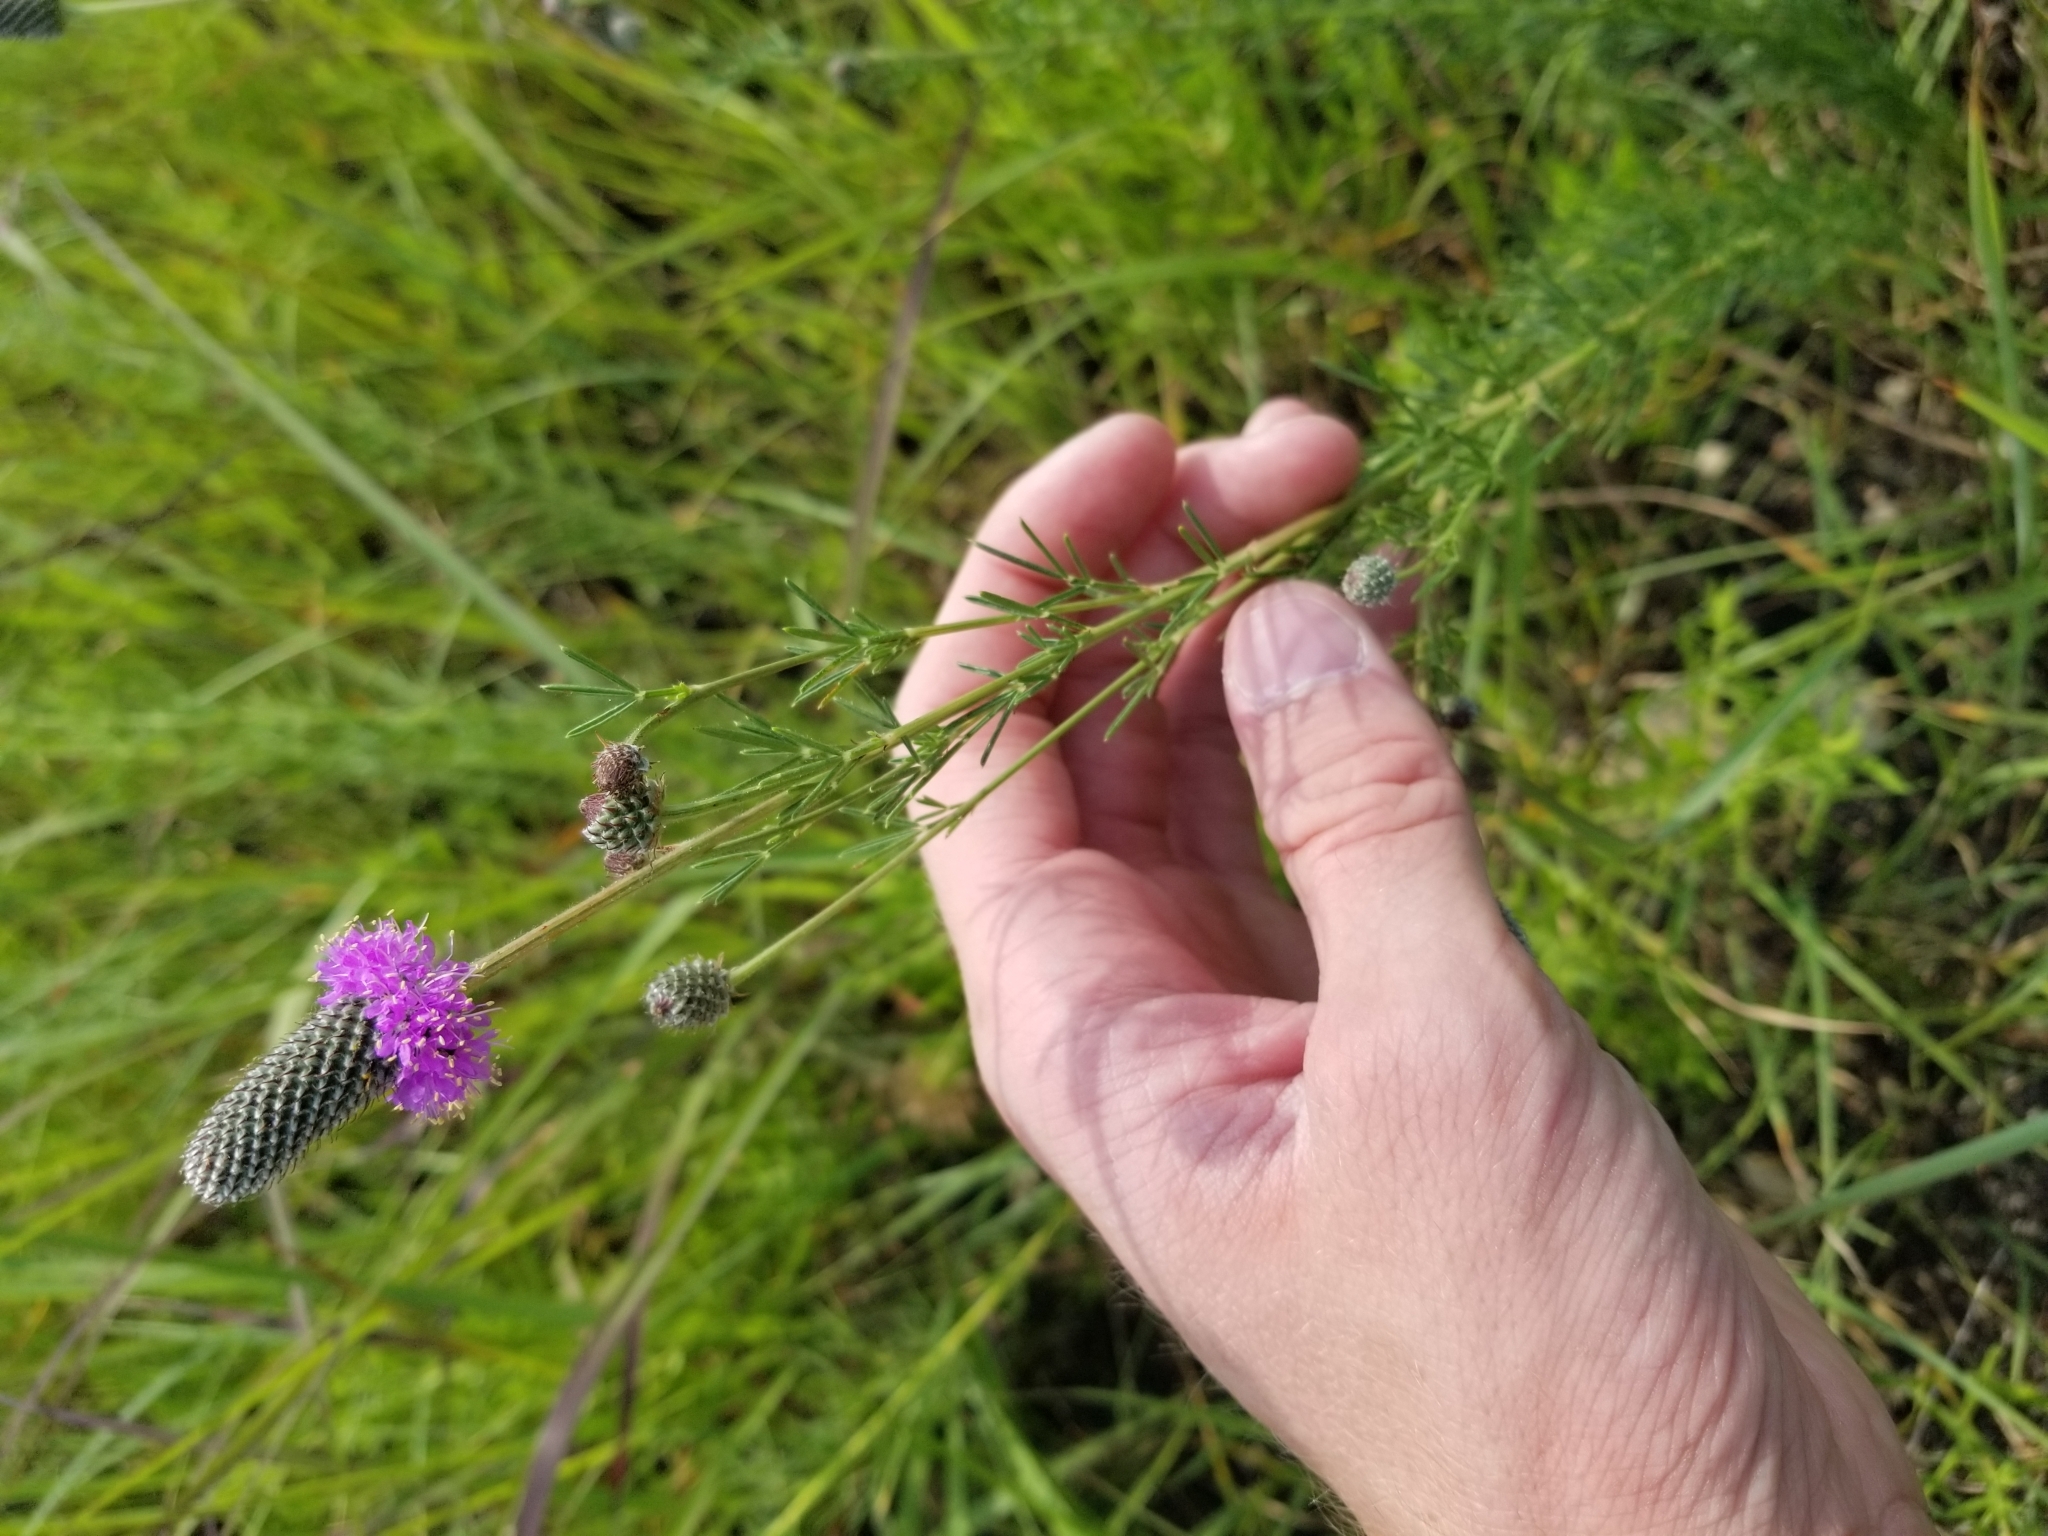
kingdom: Plantae
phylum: Tracheophyta
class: Magnoliopsida
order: Fabales
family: Fabaceae
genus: Dalea
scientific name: Dalea purpurea
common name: Purple prairie-clover
